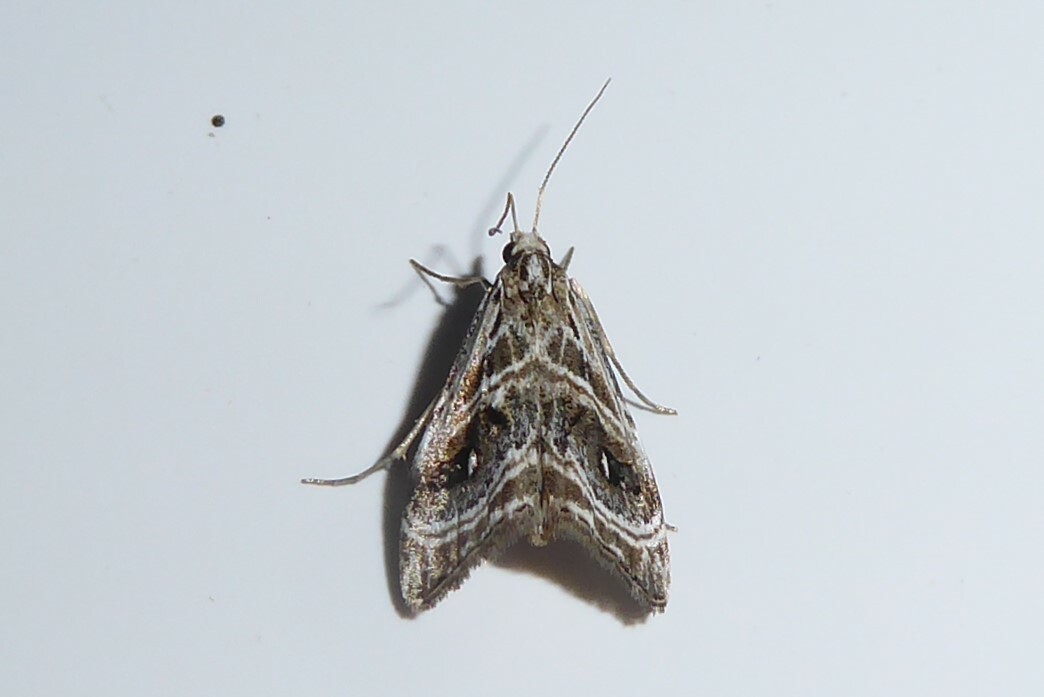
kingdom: Animalia
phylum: Arthropoda
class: Insecta
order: Lepidoptera
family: Crambidae
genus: Gadira
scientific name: Gadira acerella
